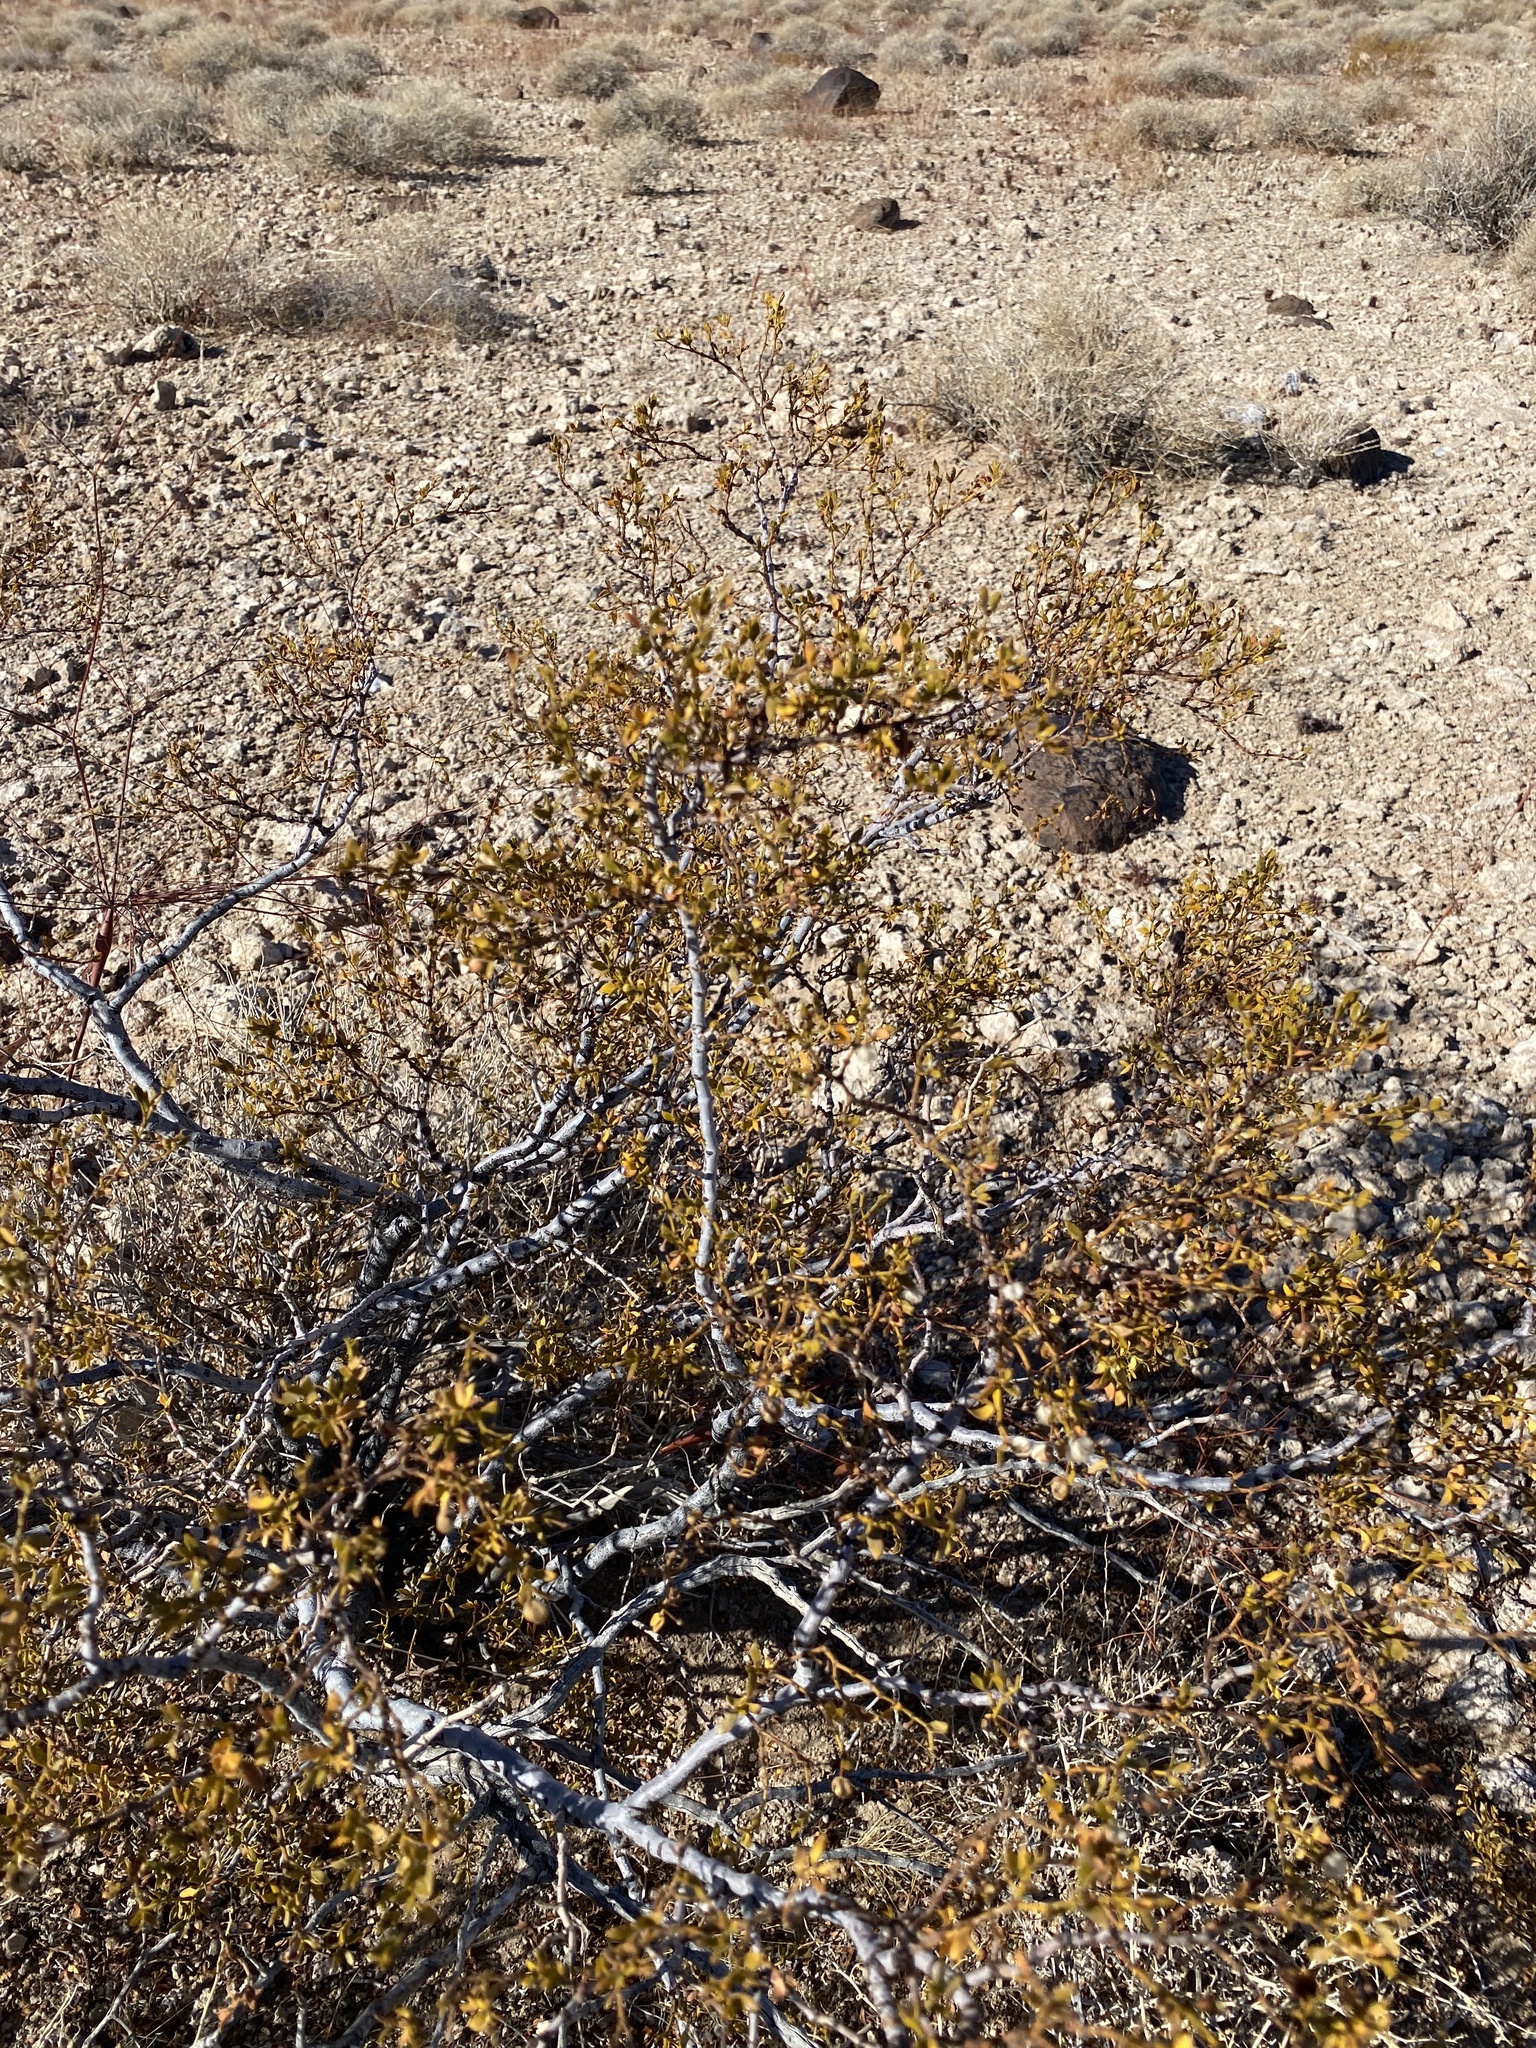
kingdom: Plantae
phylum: Tracheophyta
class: Magnoliopsida
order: Zygophyllales
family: Zygophyllaceae
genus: Larrea
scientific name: Larrea tridentata
